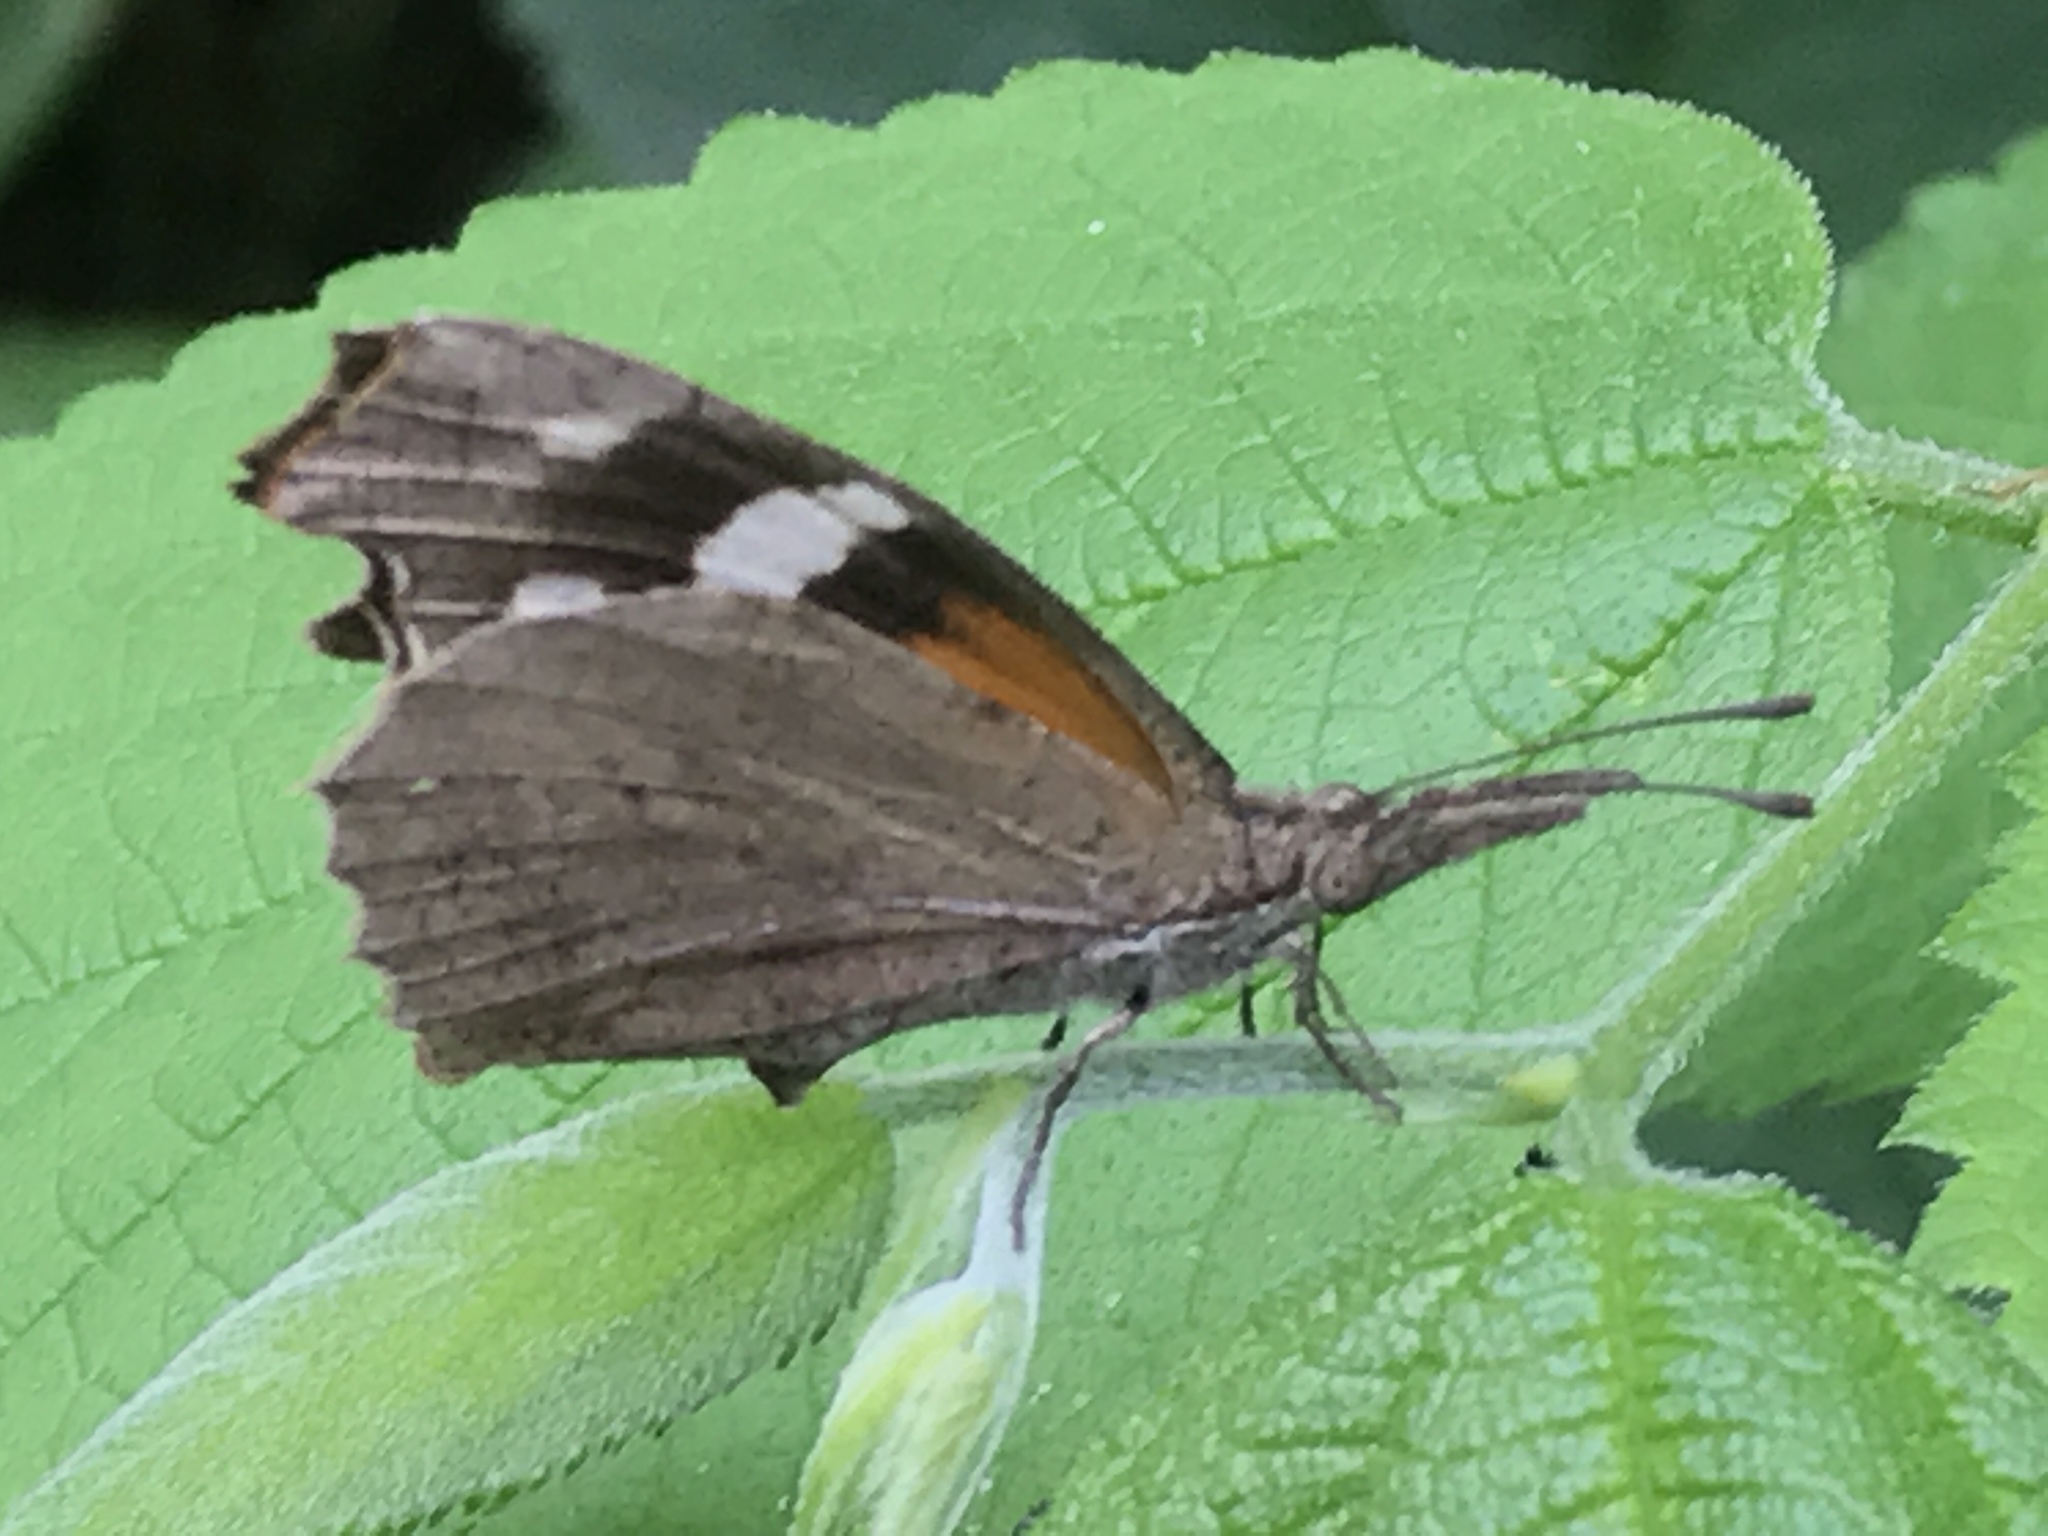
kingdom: Animalia
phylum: Arthropoda
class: Insecta
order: Lepidoptera
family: Nymphalidae
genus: Libytheana
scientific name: Libytheana carinenta
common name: American snout
